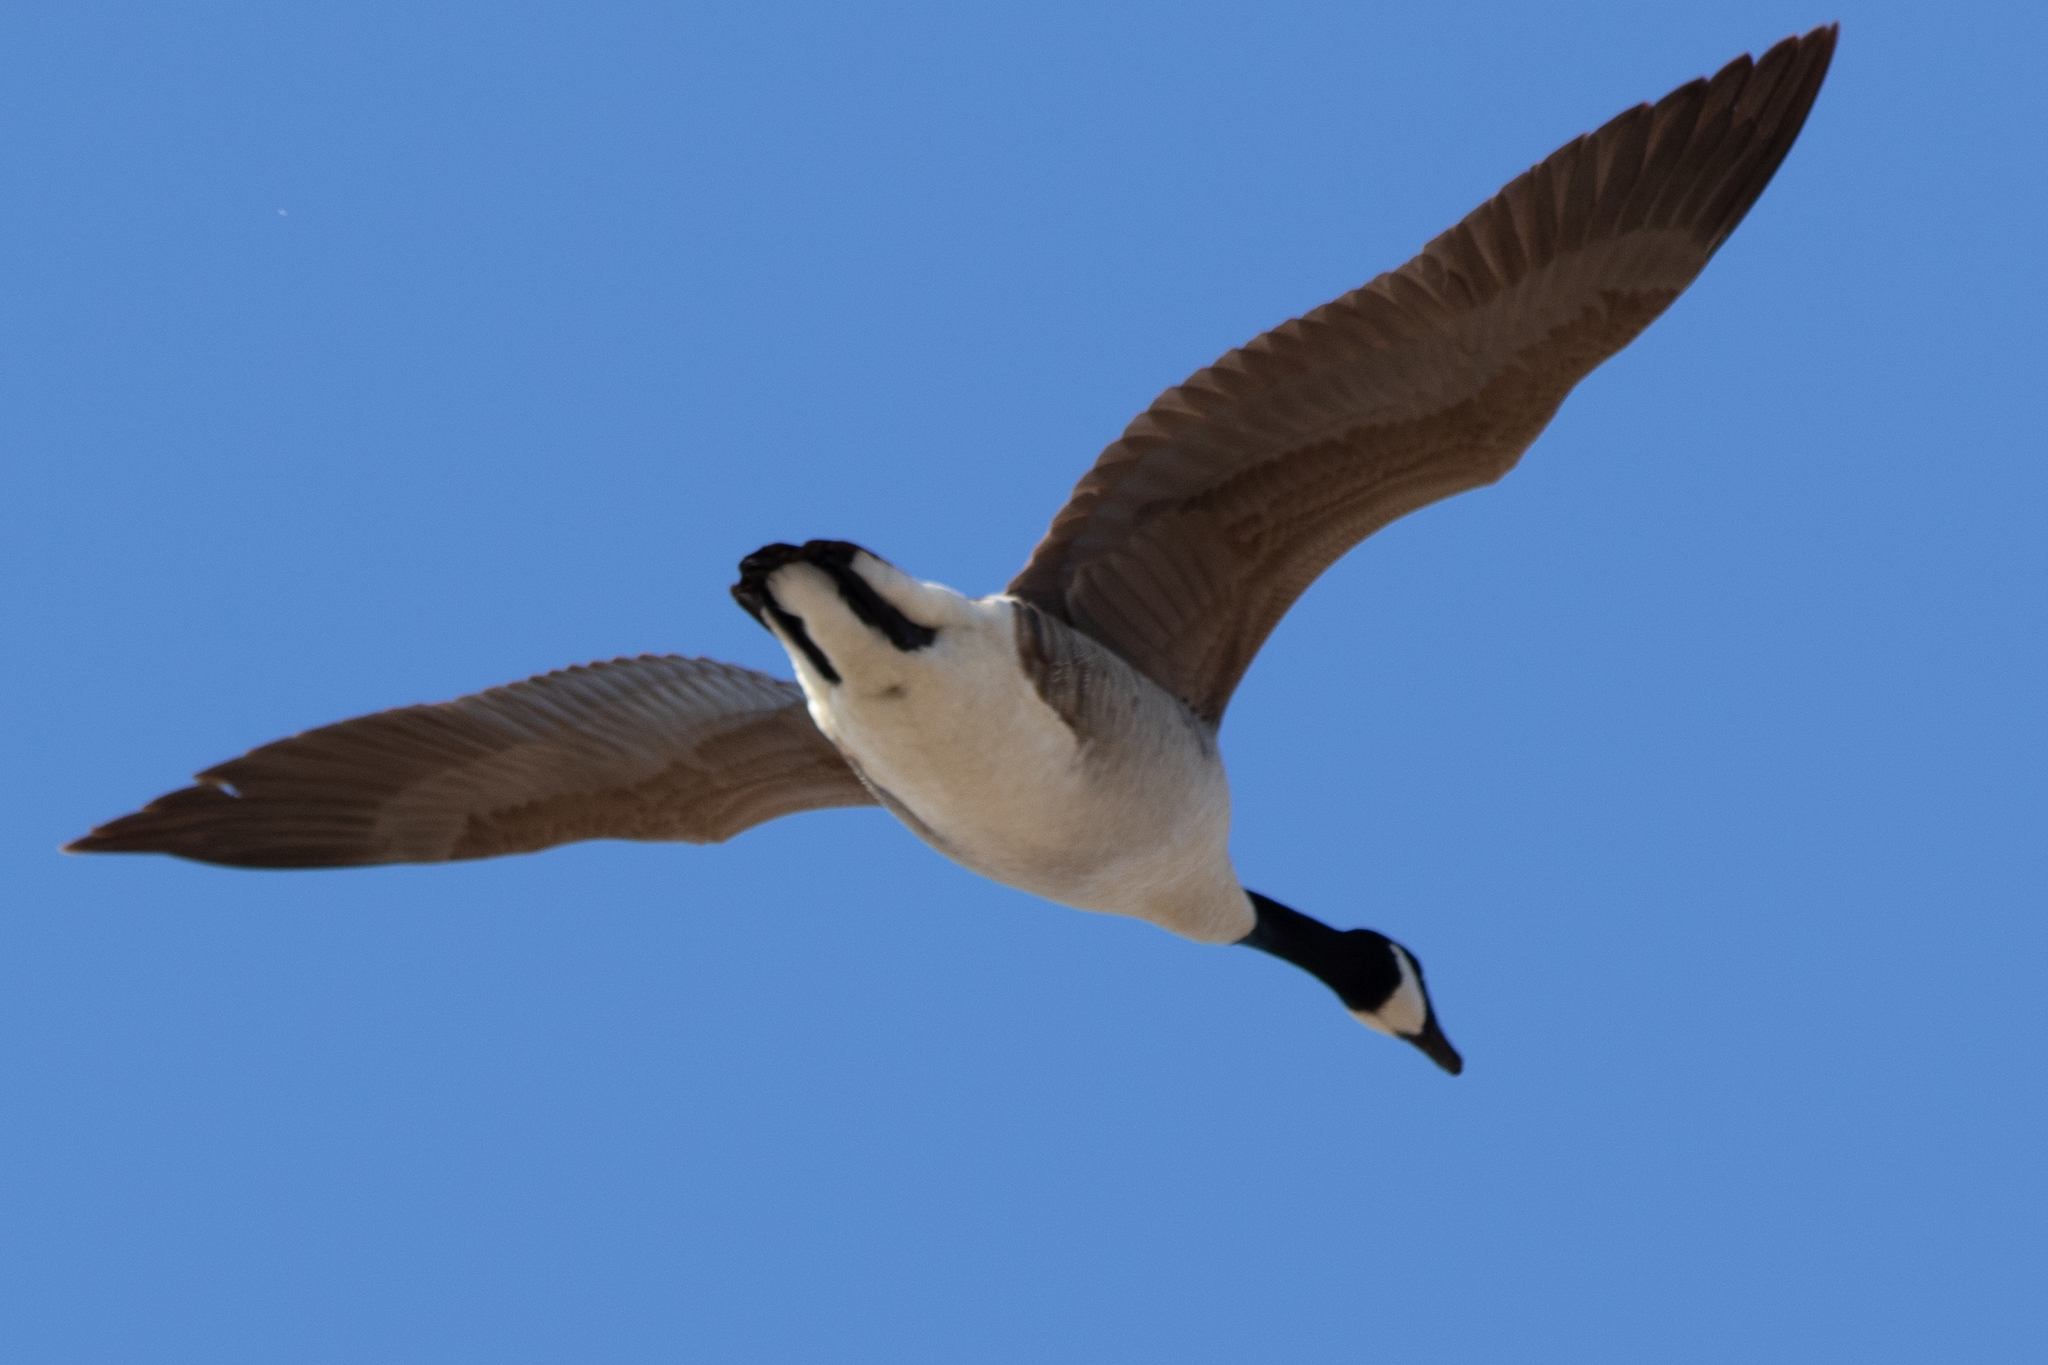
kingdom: Animalia
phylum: Chordata
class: Aves
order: Anseriformes
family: Anatidae
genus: Branta
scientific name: Branta canadensis
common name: Canada goose
